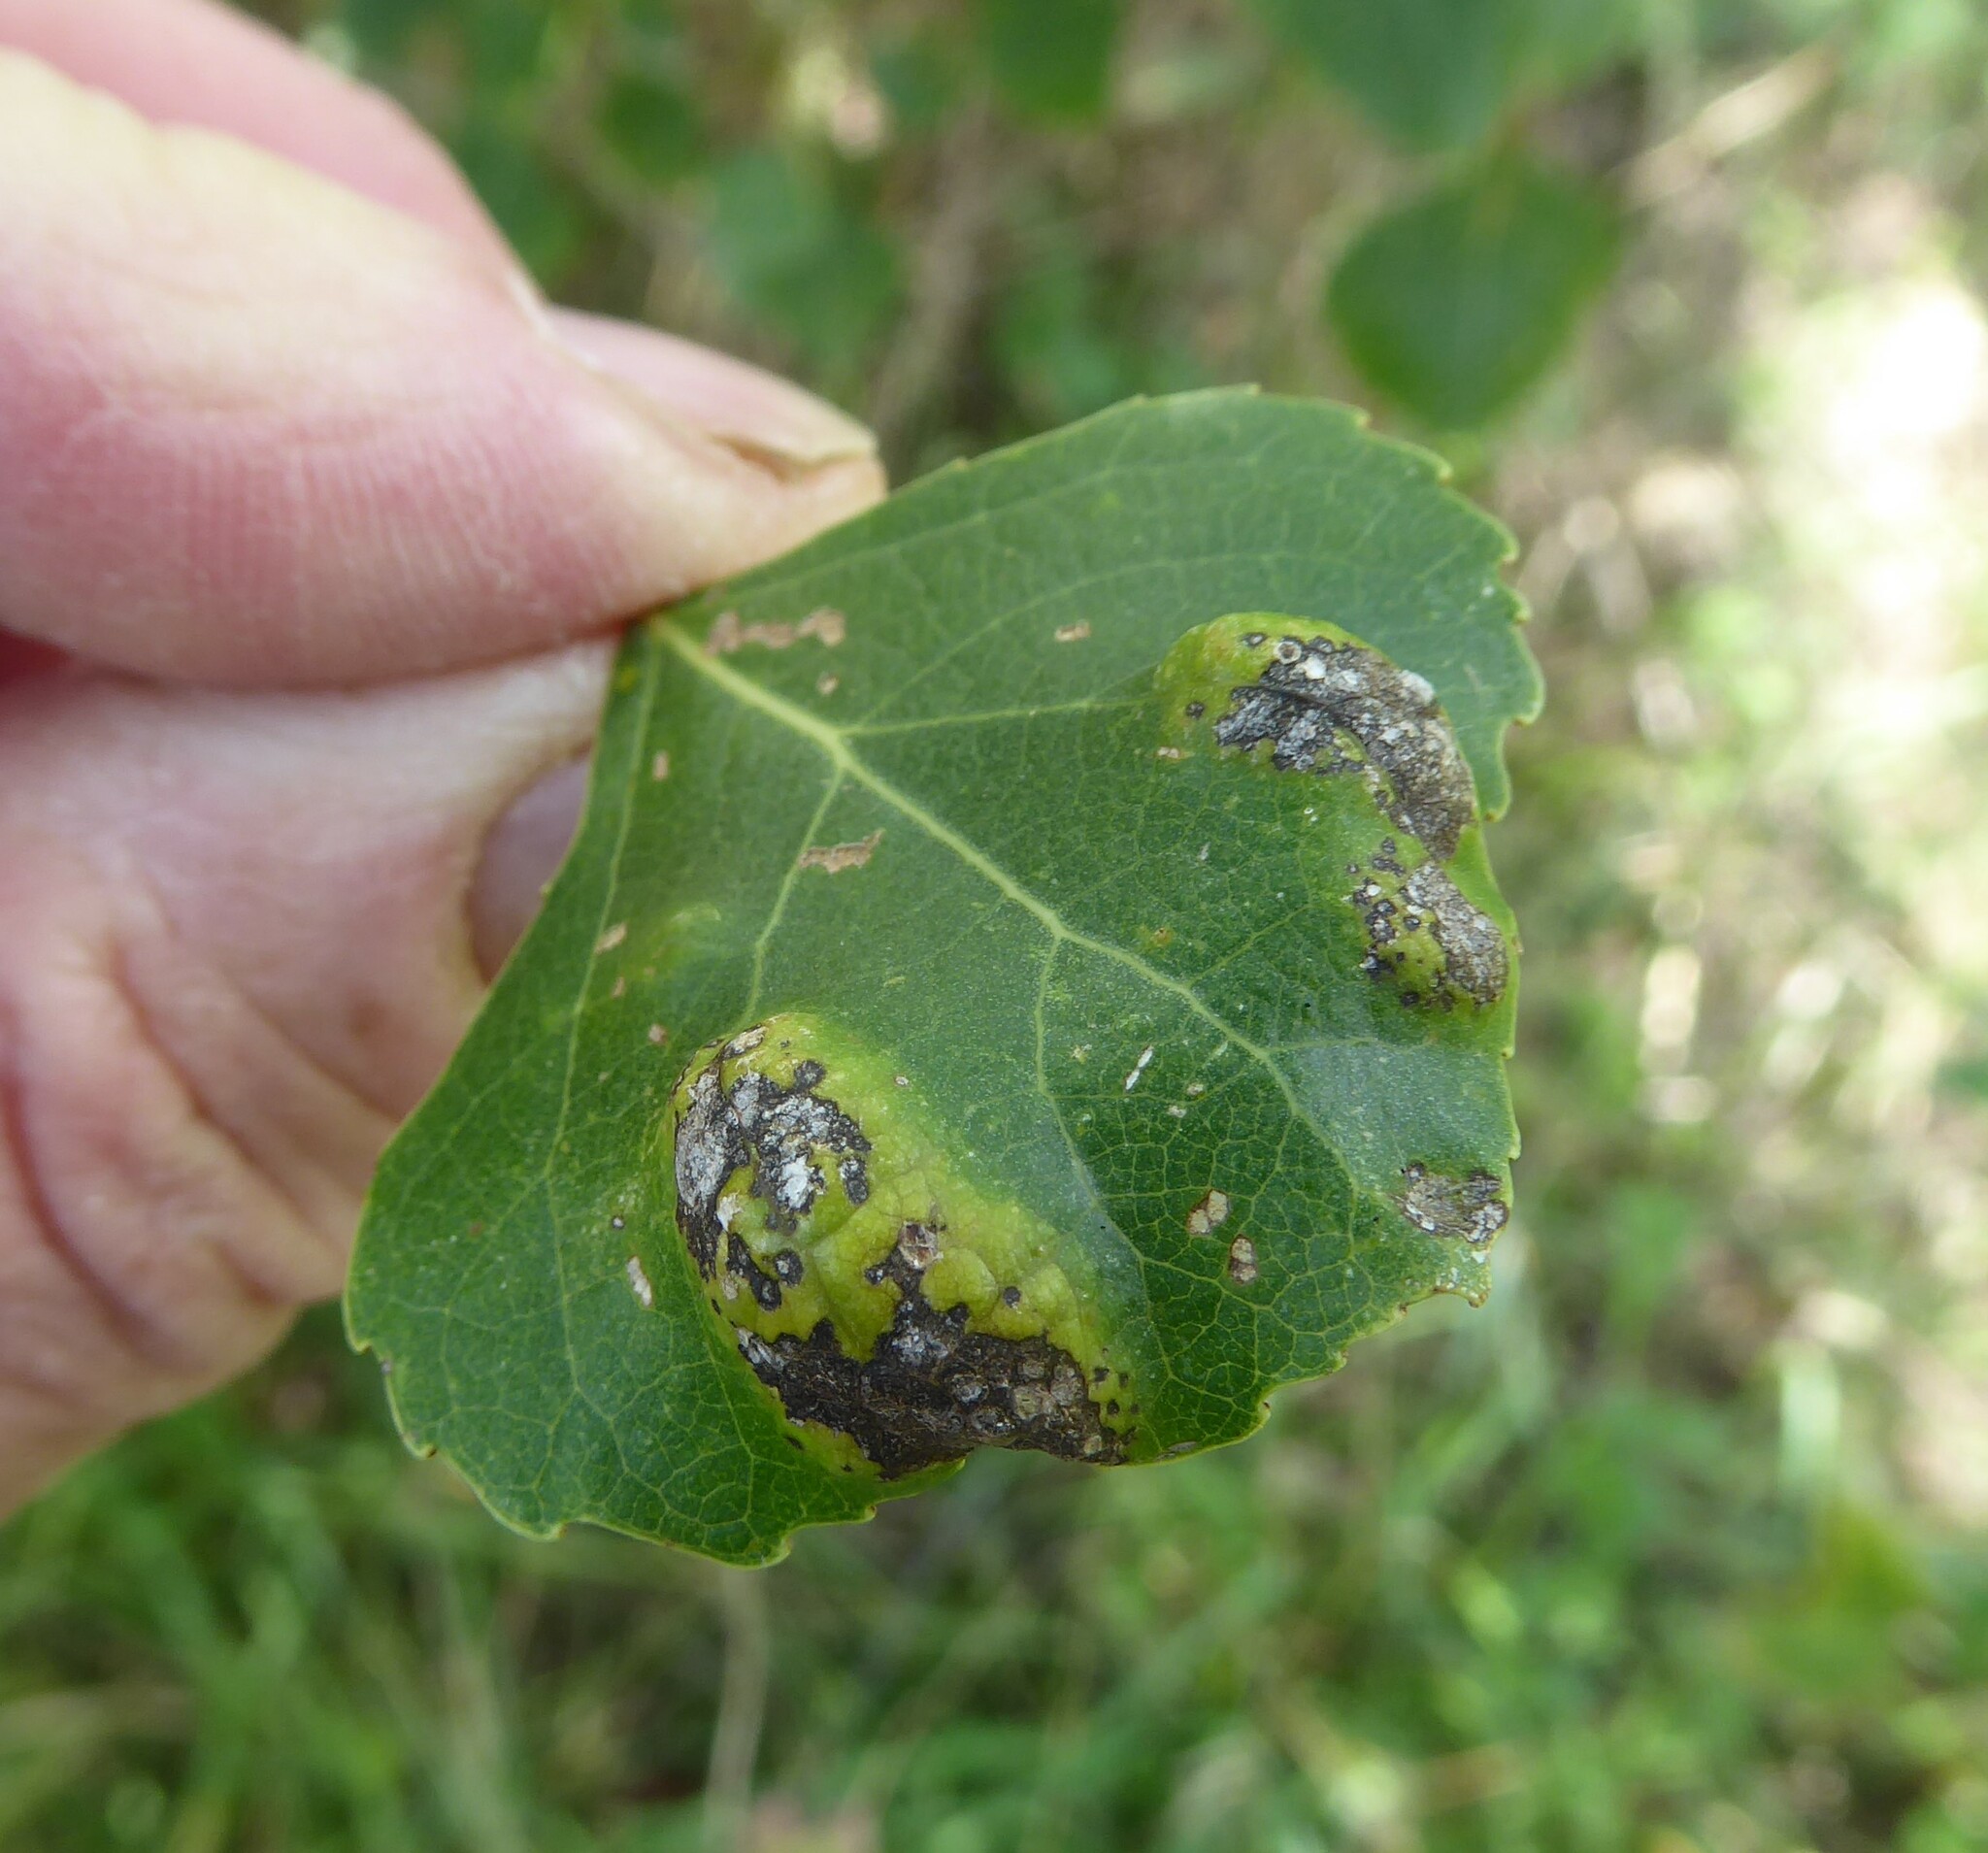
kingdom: Fungi
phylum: Ascomycota
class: Taphrinomycetes
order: Taphrinales
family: Taphrinaceae
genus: Taphrina
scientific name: Taphrina populina
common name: Poplar leaf curl
